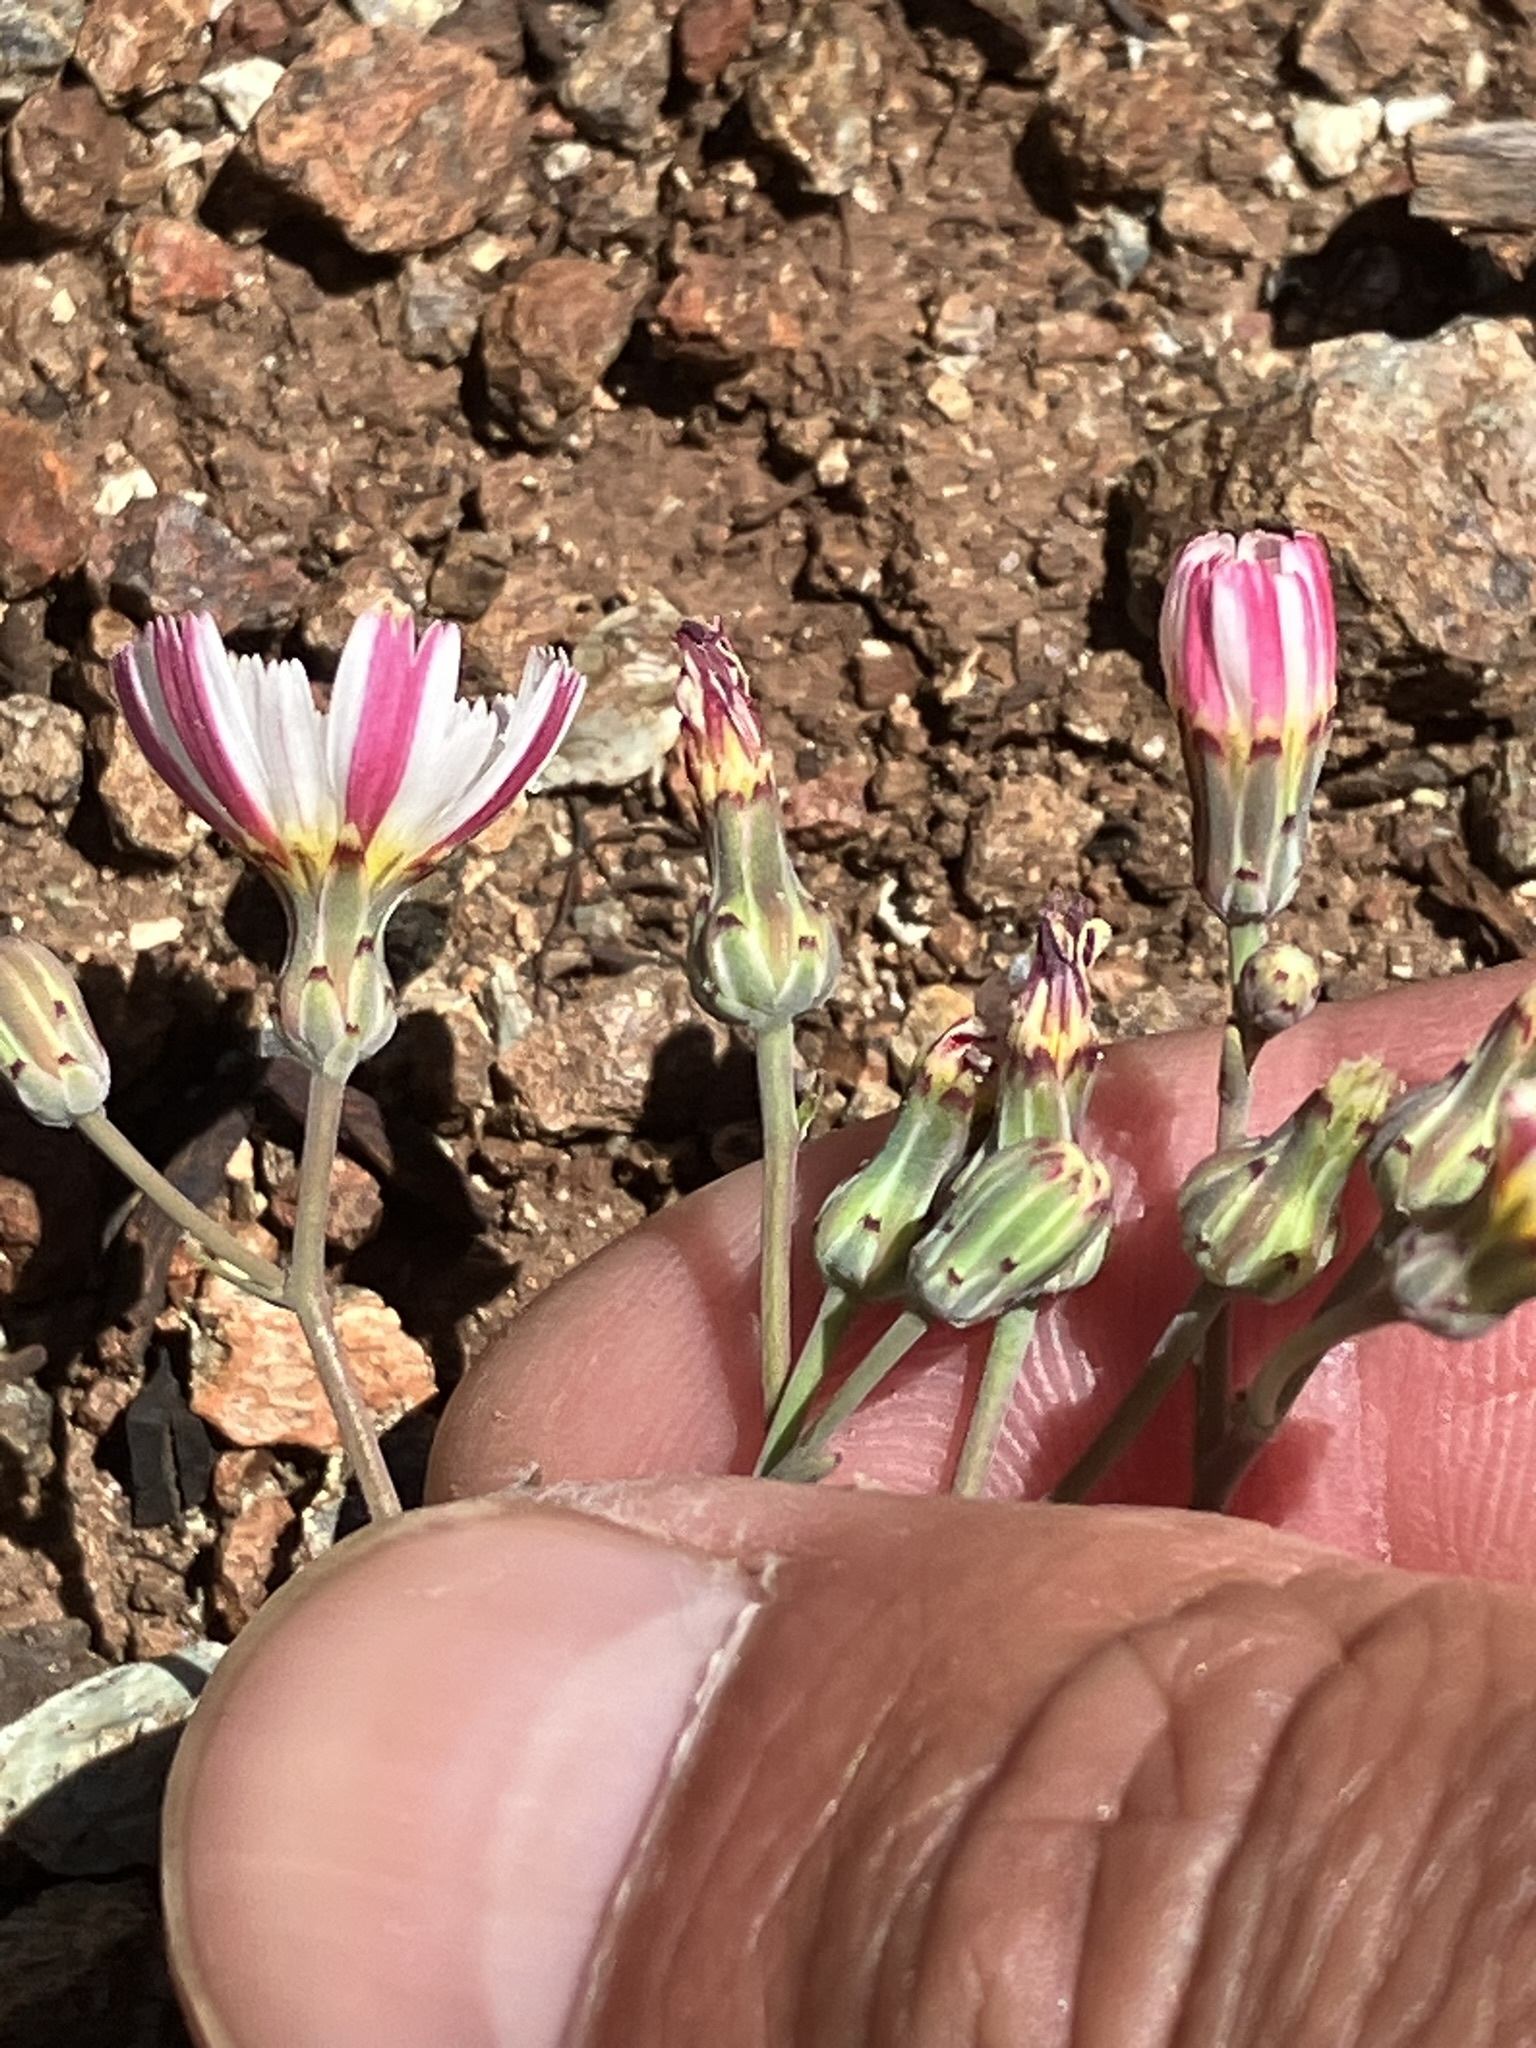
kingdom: Plantae
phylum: Tracheophyta
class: Magnoliopsida
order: Asterales
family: Asteraceae
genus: Malacothrix
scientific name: Malacothrix floccifera
